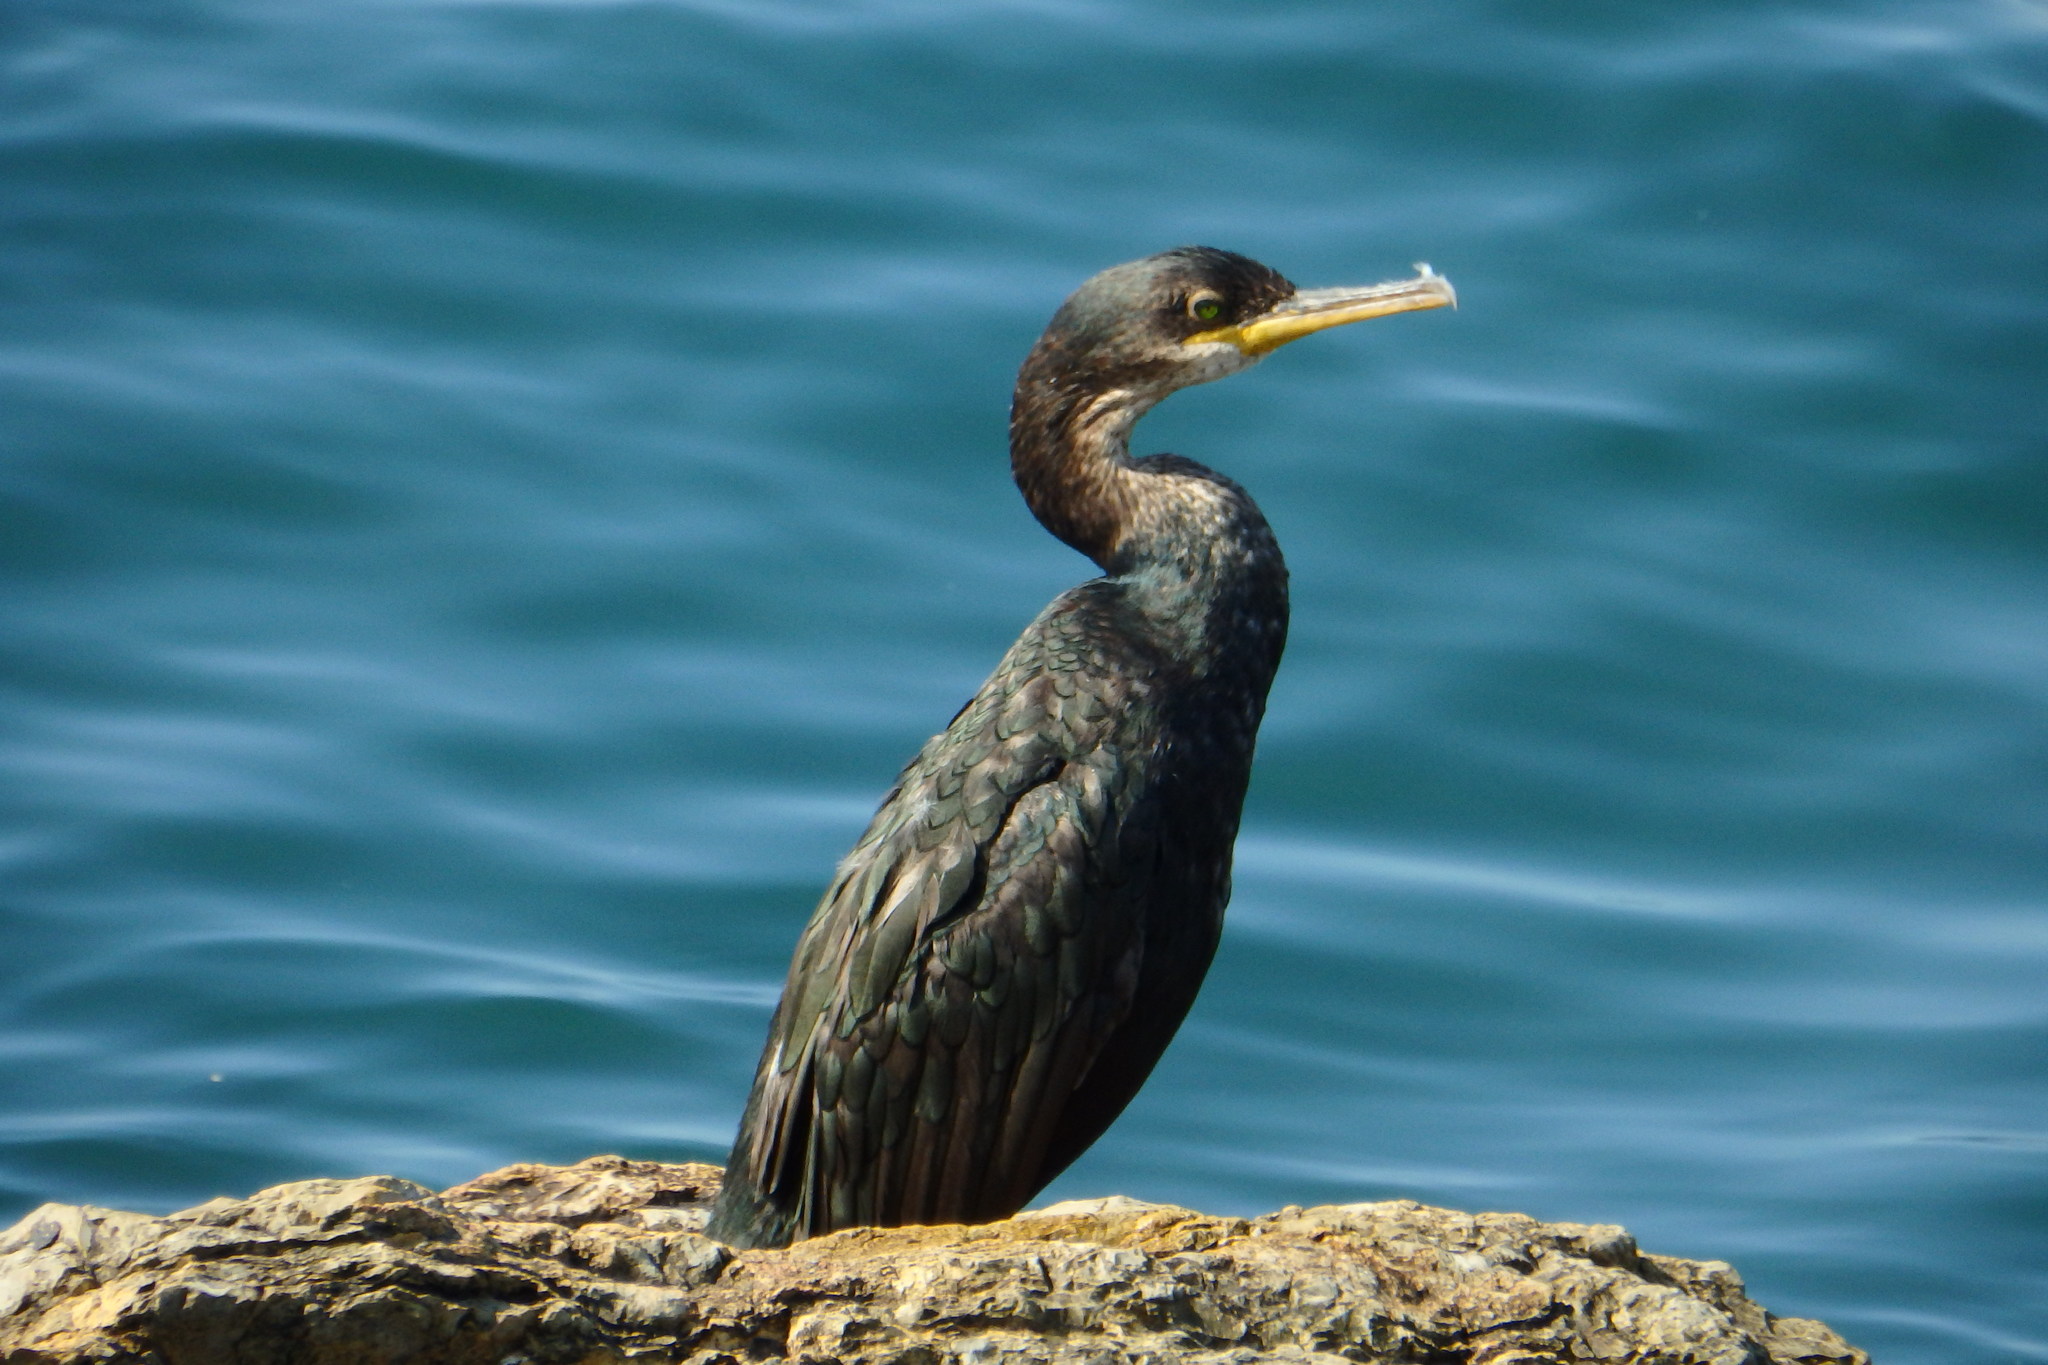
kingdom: Animalia
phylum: Chordata
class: Aves
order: Suliformes
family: Phalacrocoracidae
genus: Phalacrocorax
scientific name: Phalacrocorax aristotelis
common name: European shag
